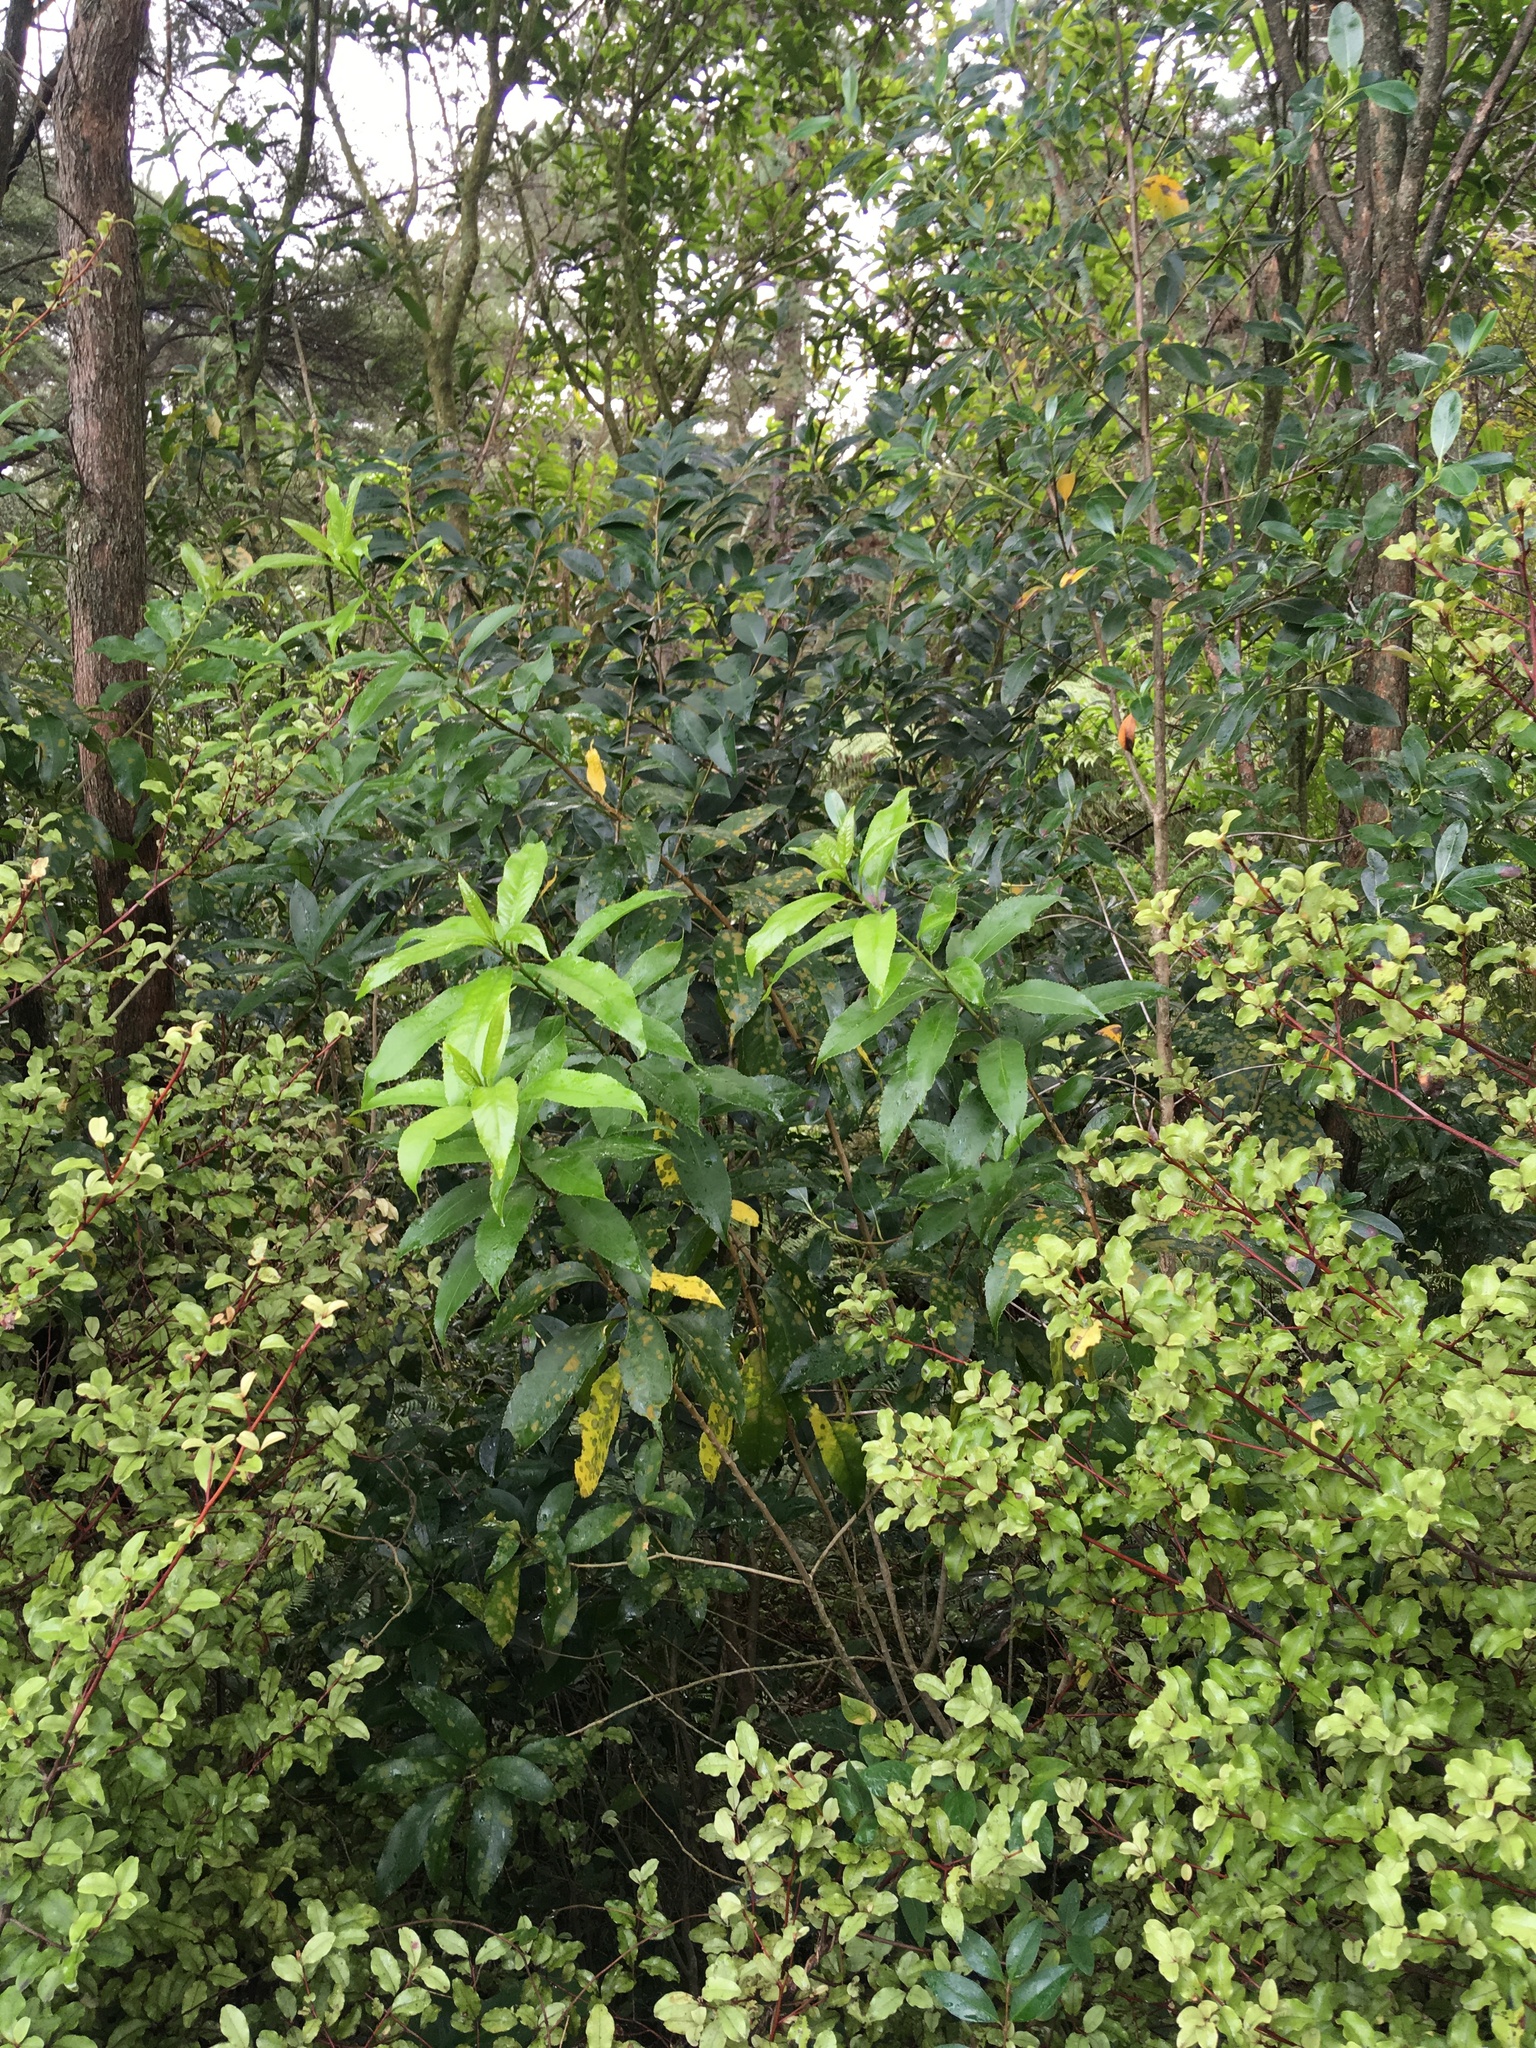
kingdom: Plantae
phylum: Tracheophyta
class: Magnoliopsida
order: Lamiales
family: Oleaceae
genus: Ligustrum
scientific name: Ligustrum lucidum
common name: Glossy privet
